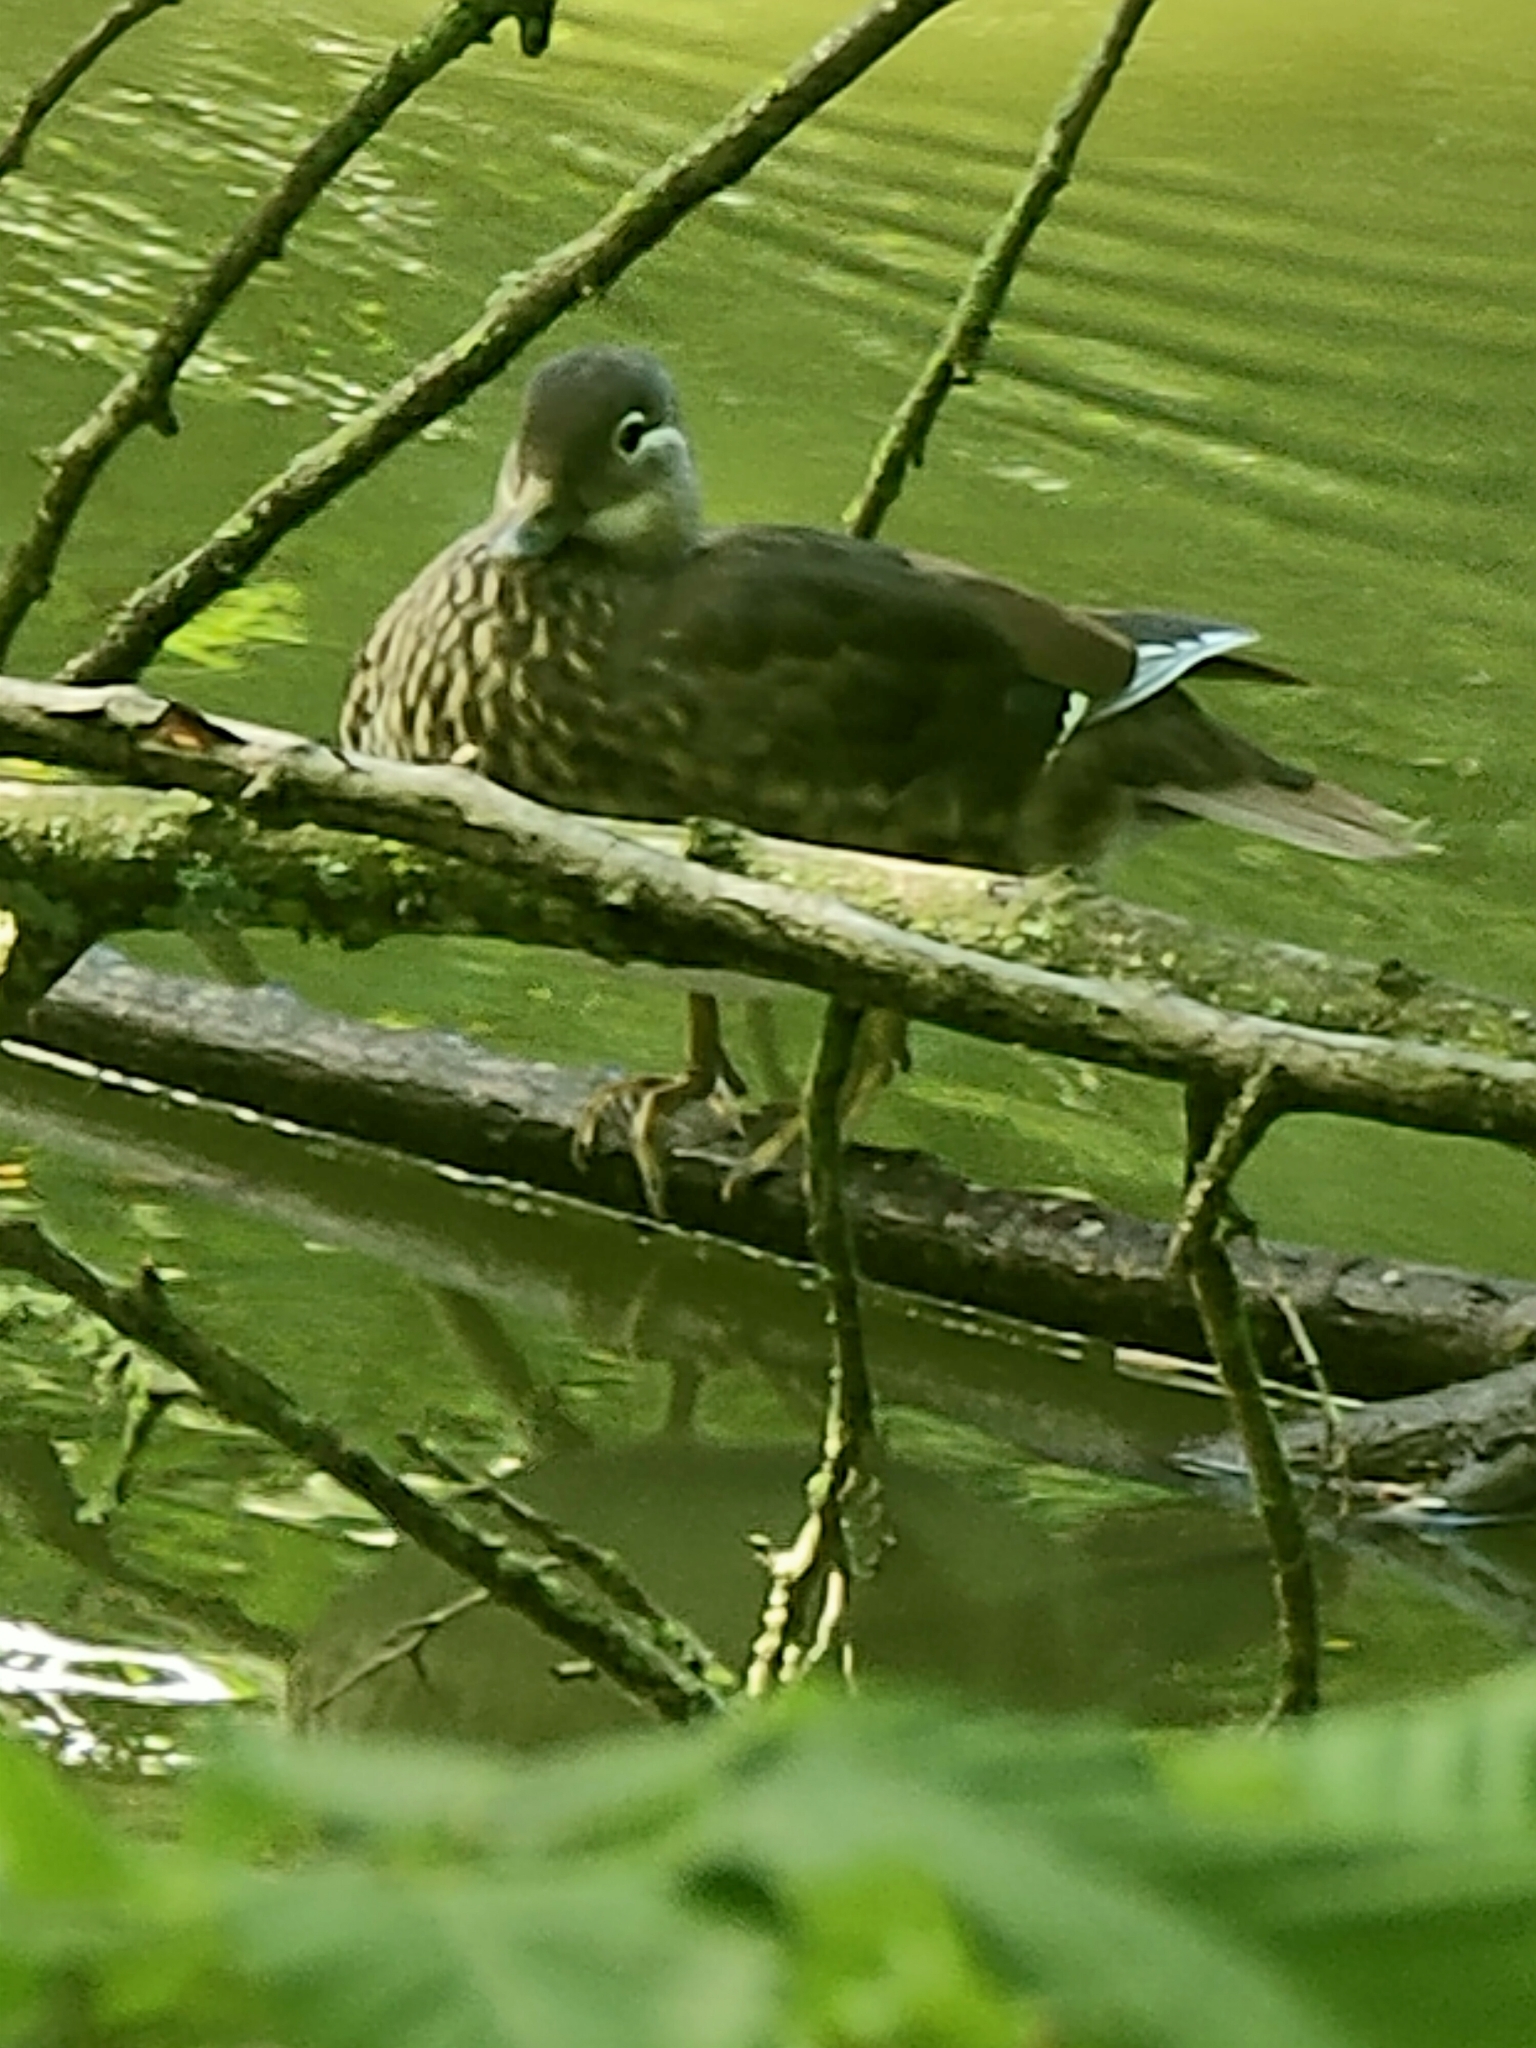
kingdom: Animalia
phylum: Chordata
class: Aves
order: Anseriformes
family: Anatidae
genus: Aix
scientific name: Aix galericulata
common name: Mandarin duck
